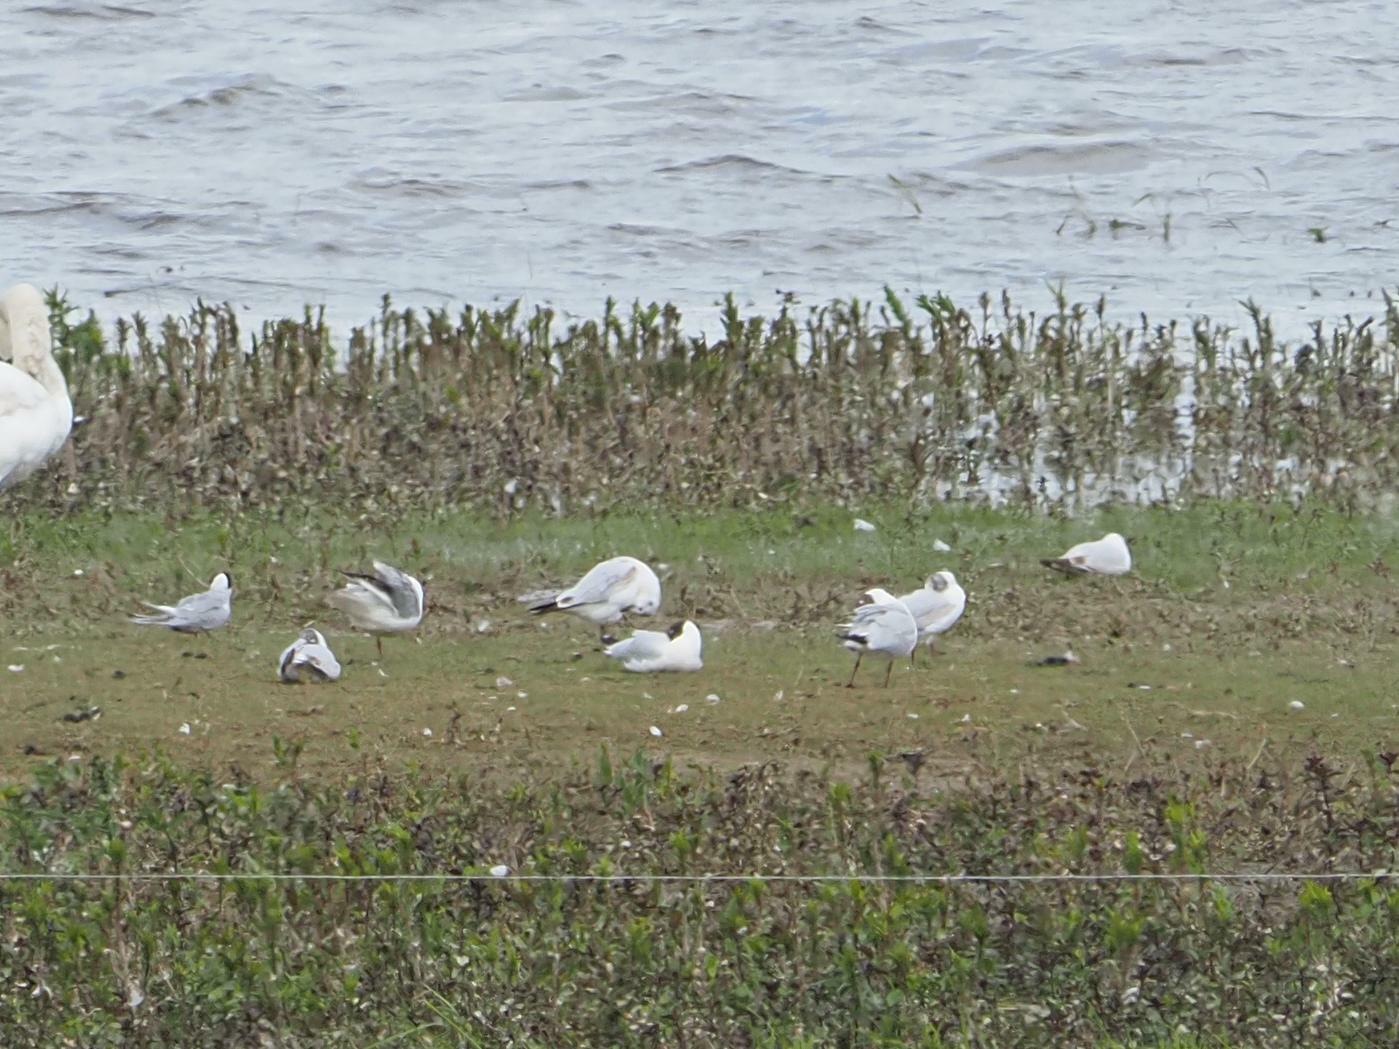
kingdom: Animalia
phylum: Chordata
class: Aves
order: Charadriiformes
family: Laridae
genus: Chroicocephalus
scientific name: Chroicocephalus ridibundus
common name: Black-headed gull
